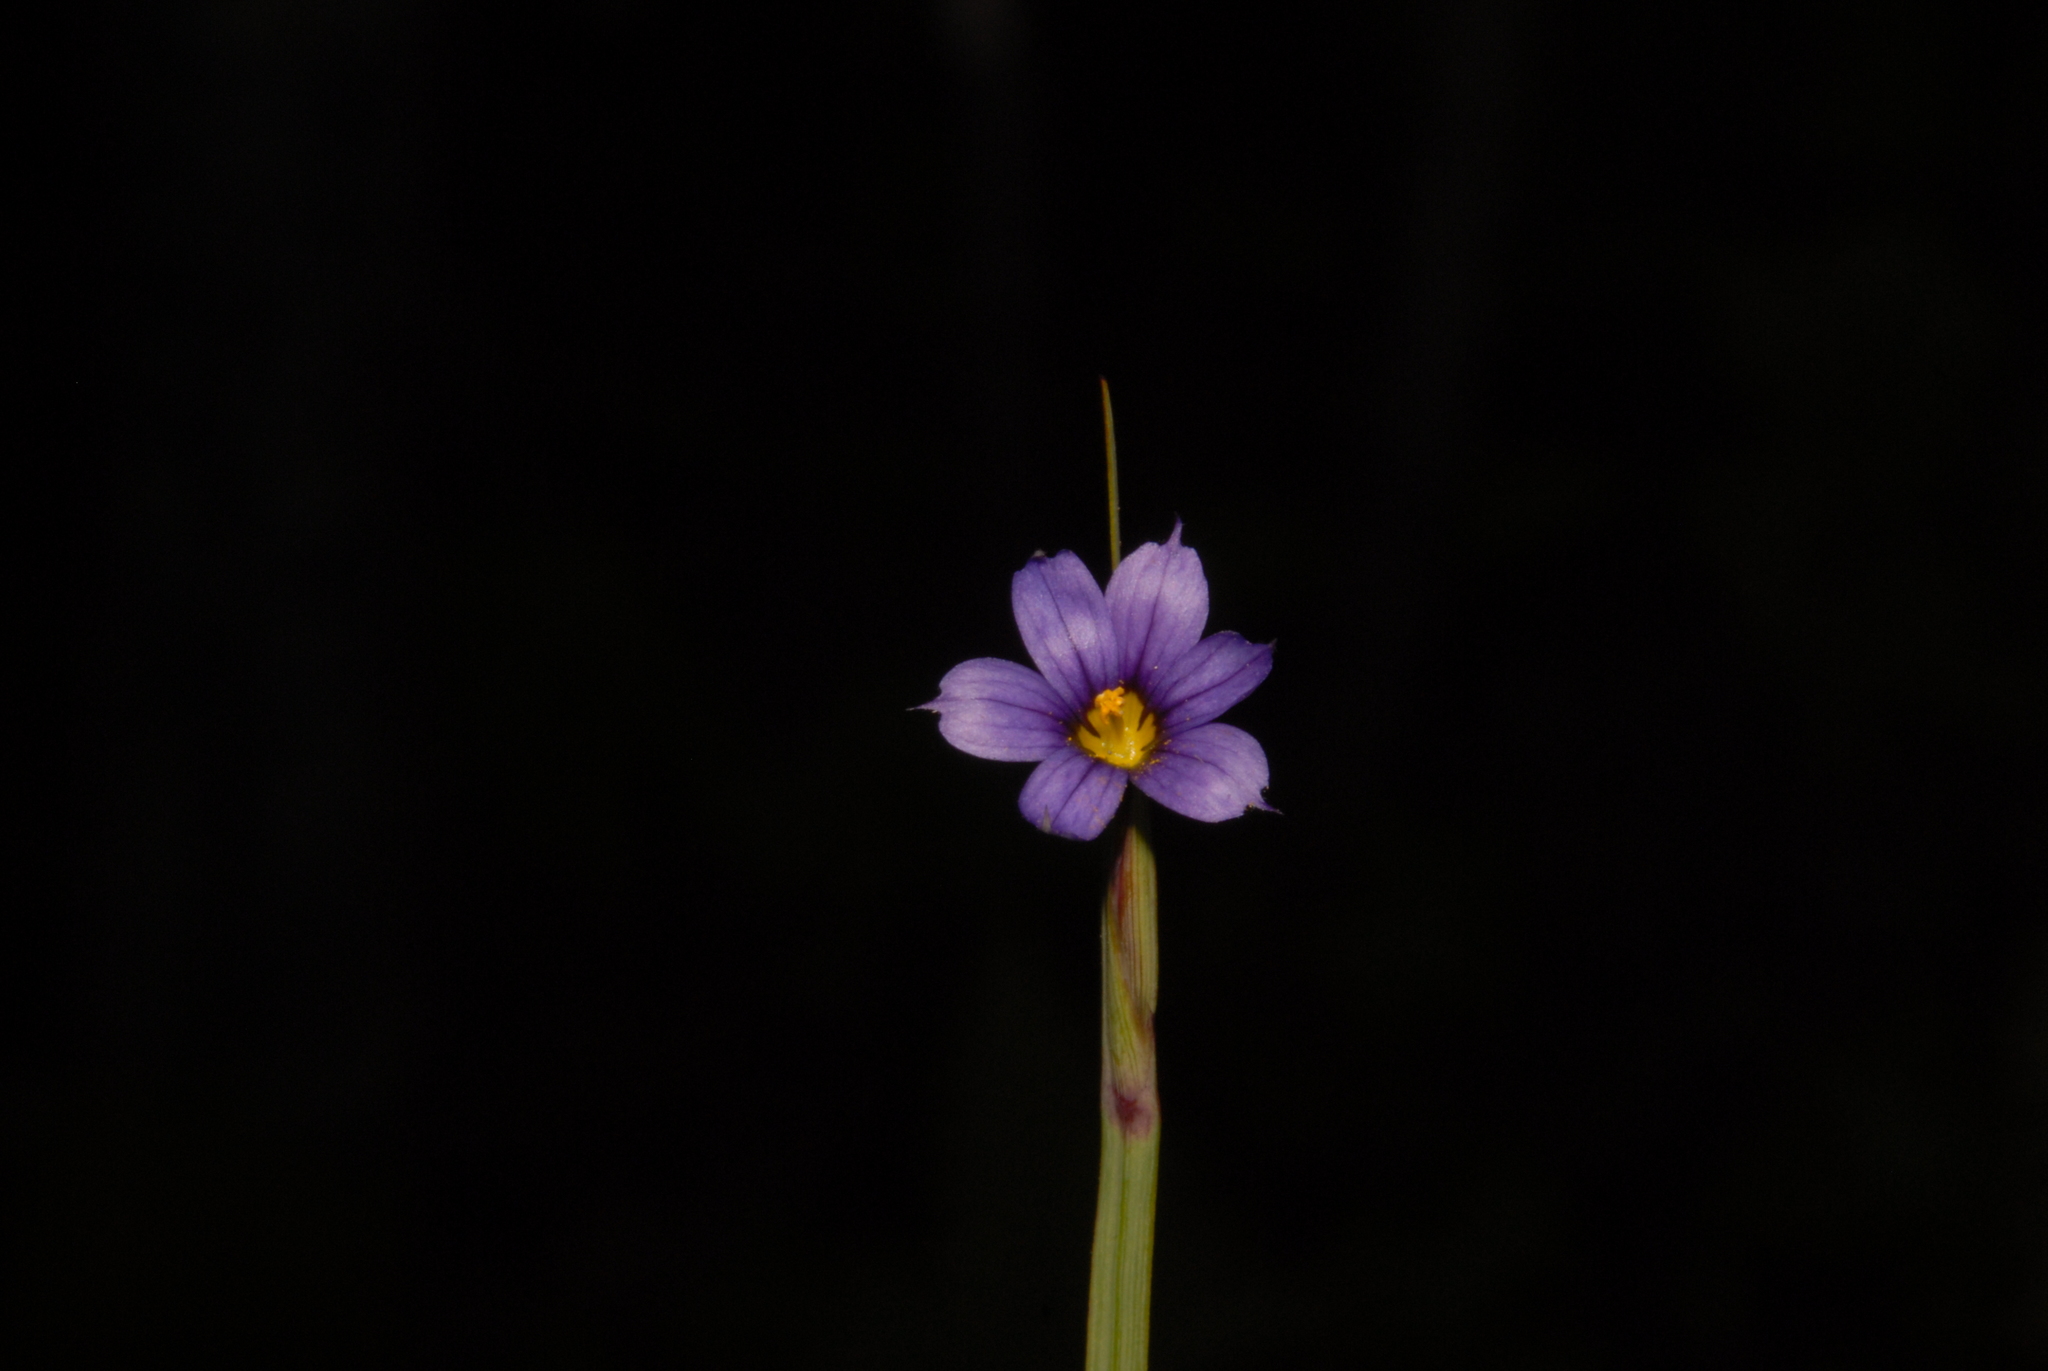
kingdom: Plantae
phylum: Tracheophyta
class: Liliopsida
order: Asparagales
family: Iridaceae
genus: Sisyrinchium
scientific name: Sisyrinchium montanum
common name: American blue-eyed-grass
